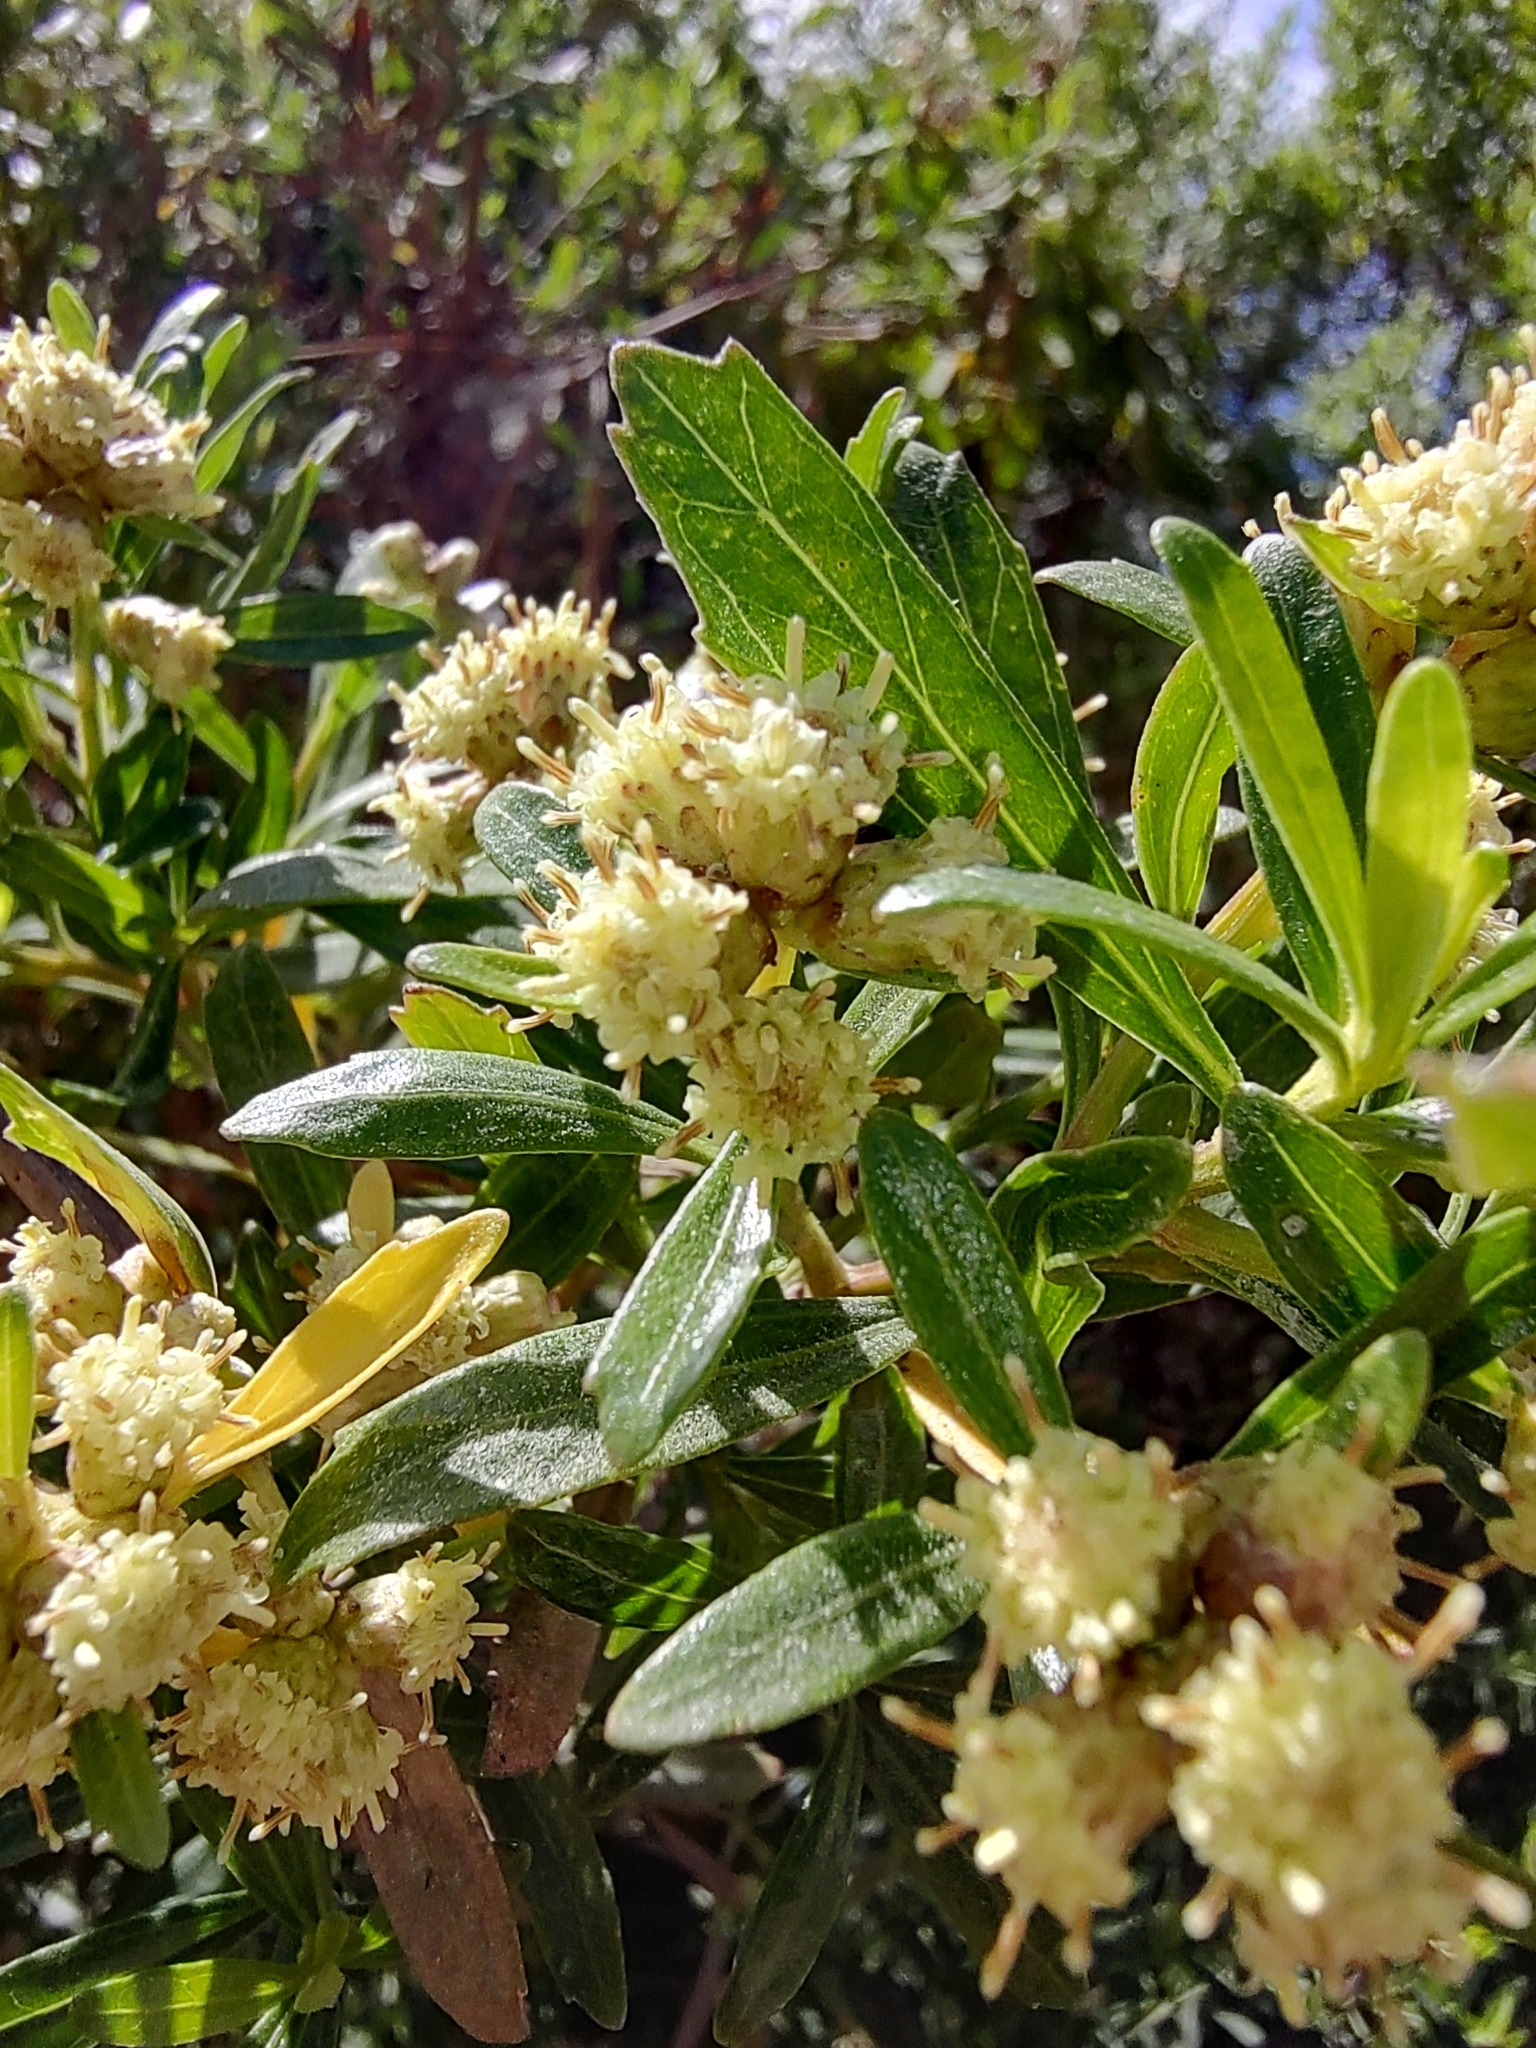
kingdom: Plantae
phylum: Tracheophyta
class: Magnoliopsida
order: Asterales
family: Asteraceae
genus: Baccharis
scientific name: Baccharis heterophylla
